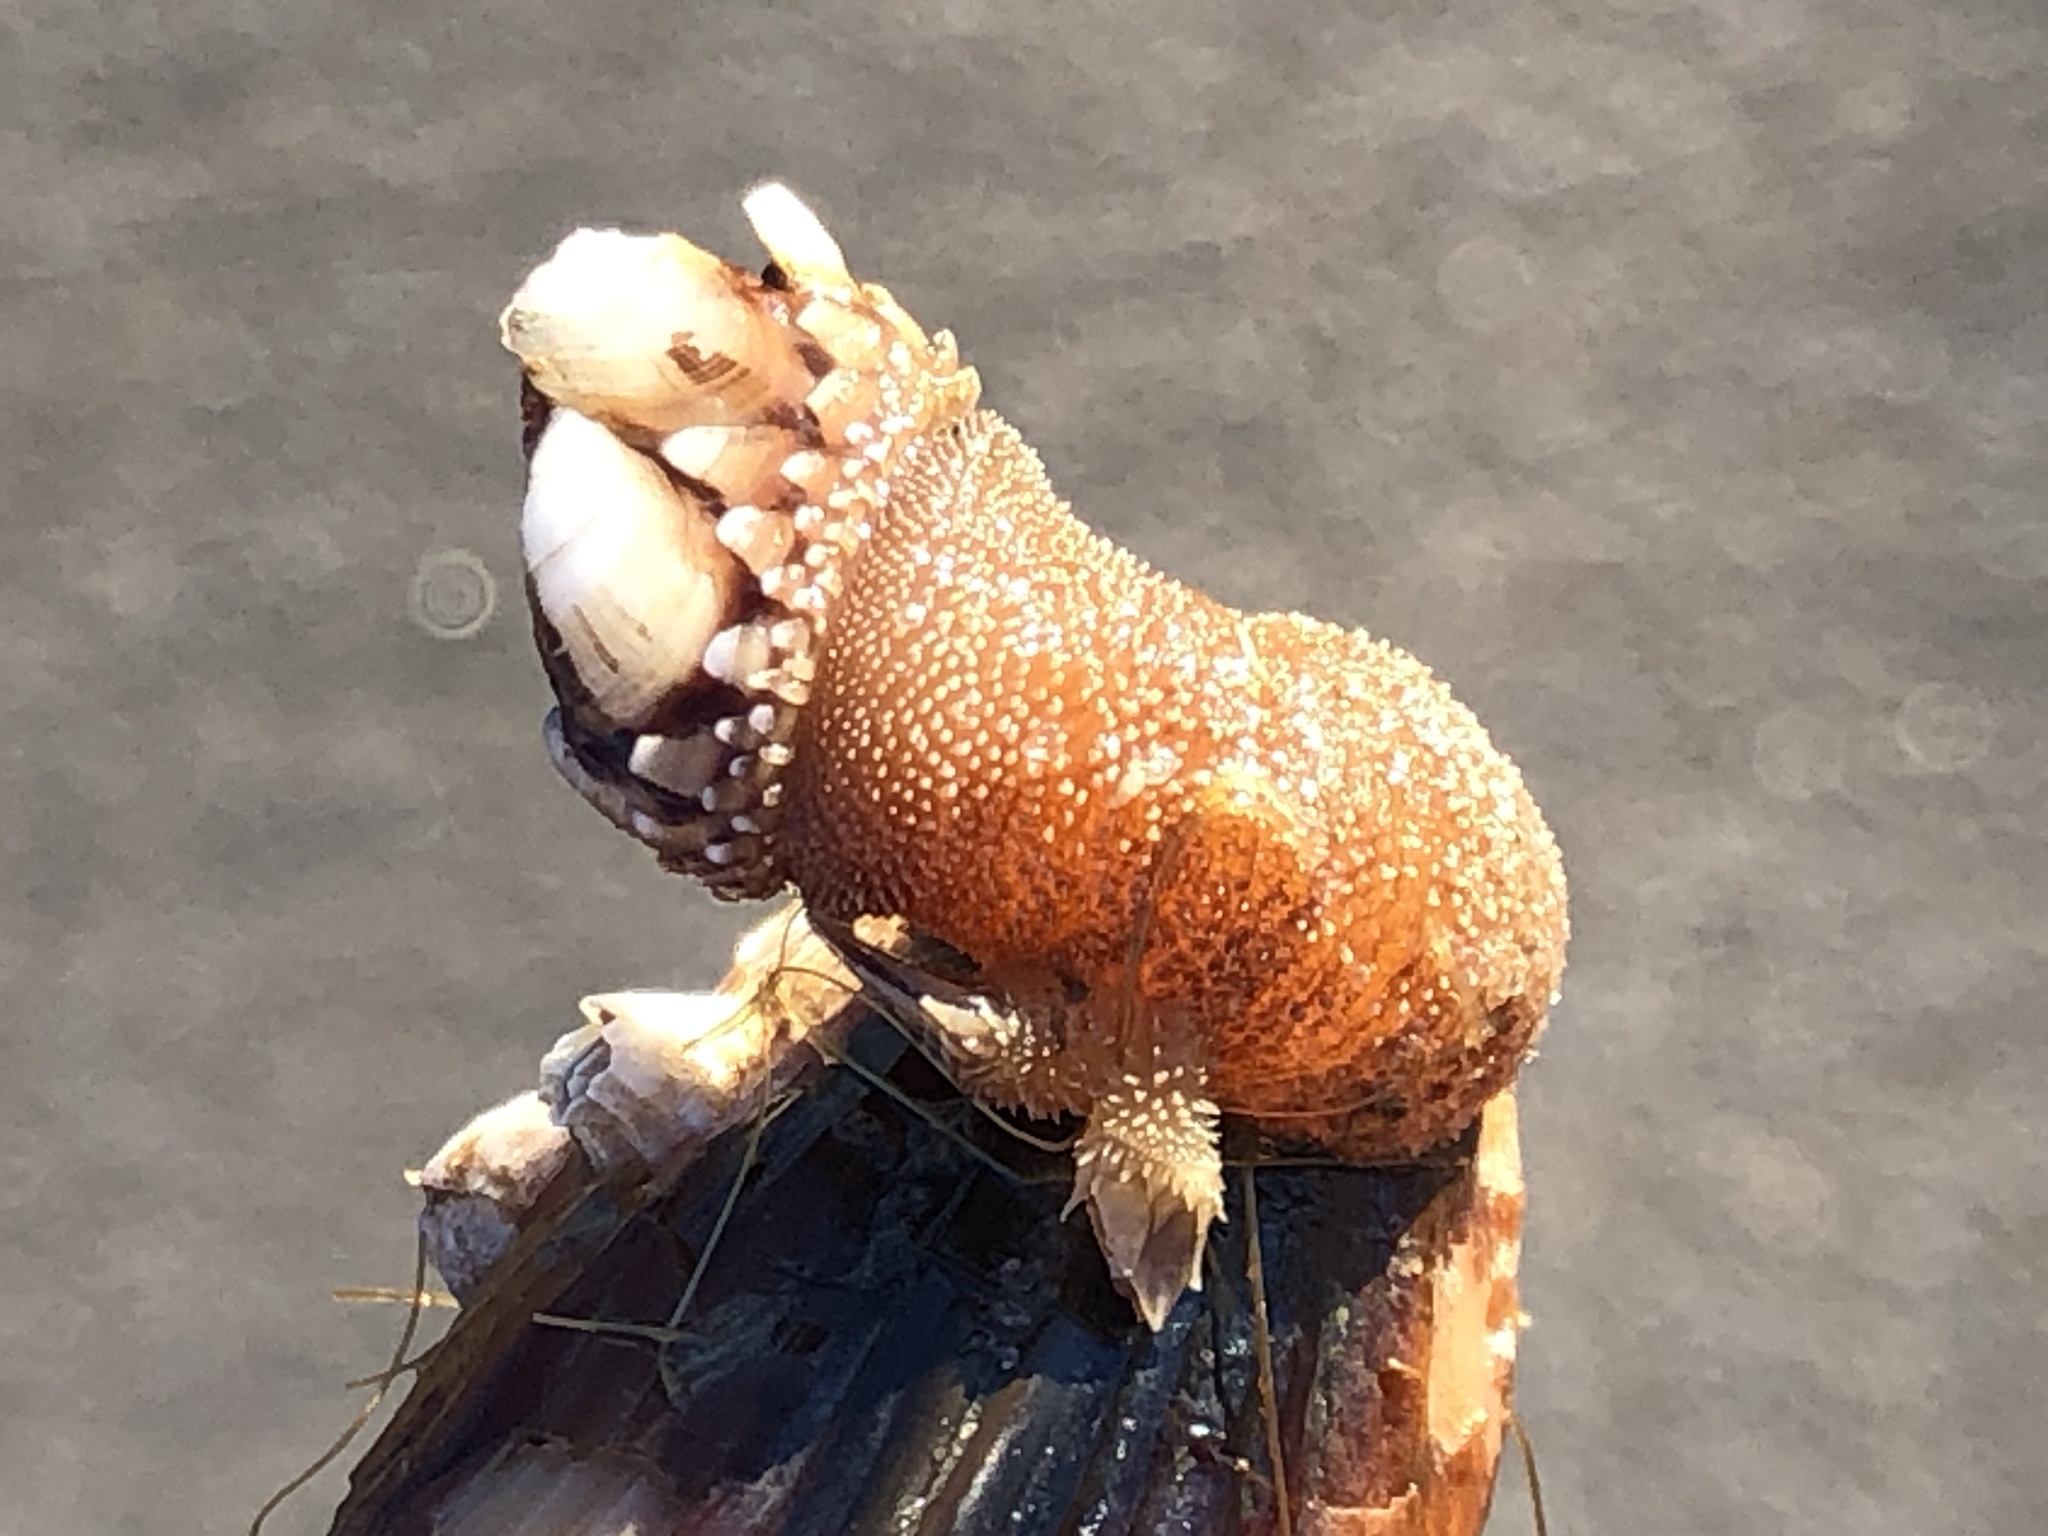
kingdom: Animalia
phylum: Arthropoda
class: Maxillopoda
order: Pedunculata
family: Pollicipedidae
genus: Pollicipes
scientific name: Pollicipes polymerus
